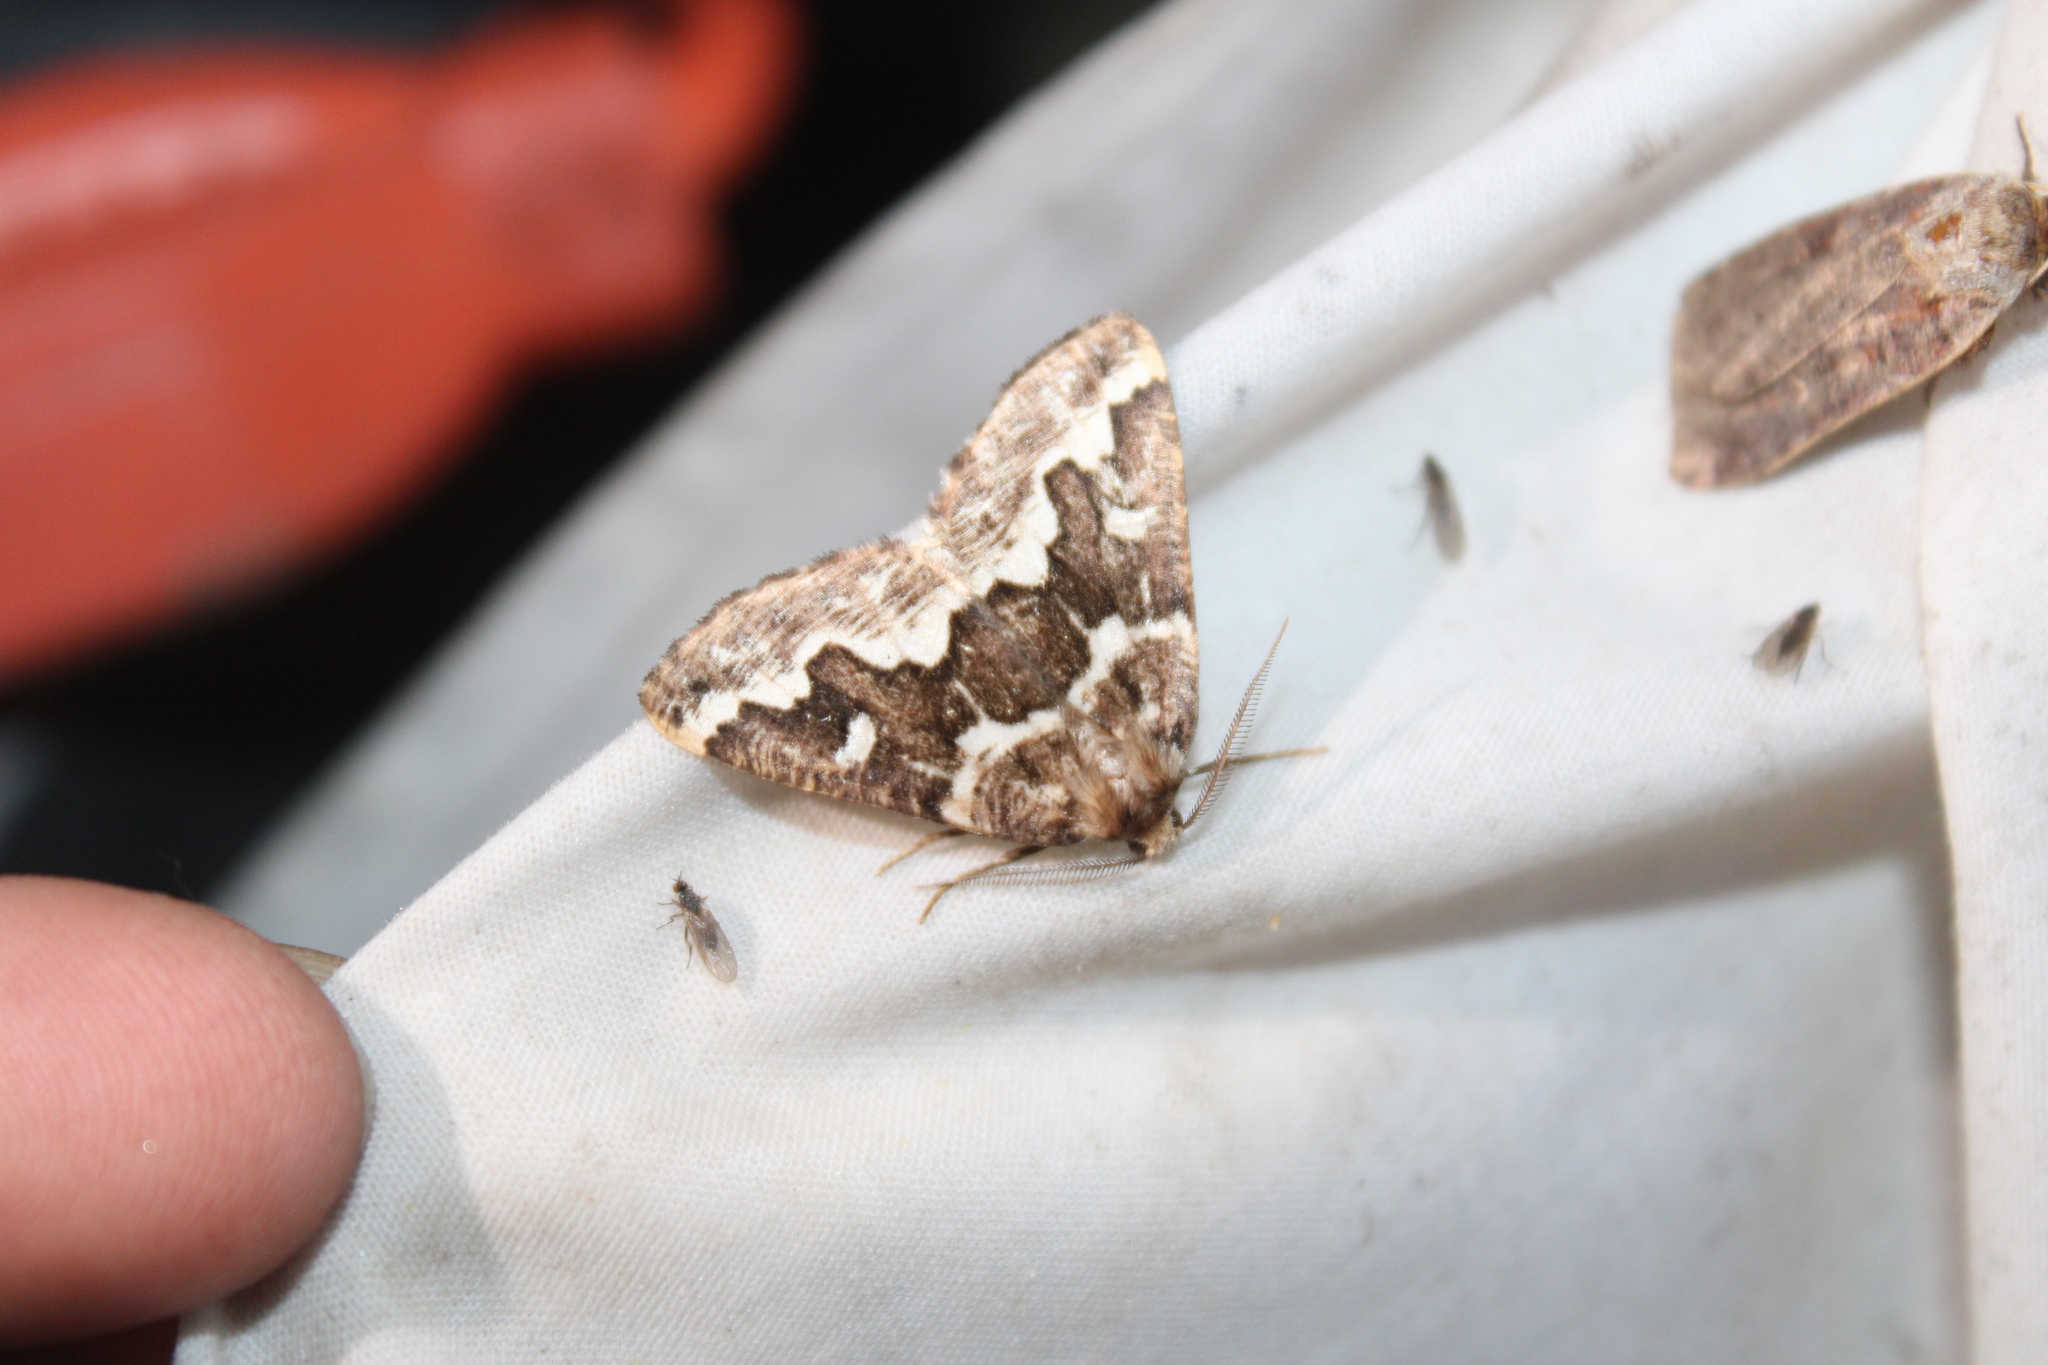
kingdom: Animalia
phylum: Arthropoda
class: Insecta
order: Lepidoptera
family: Geometridae
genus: Caripeta
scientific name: Caripeta divisata
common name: Gray spruce looper
